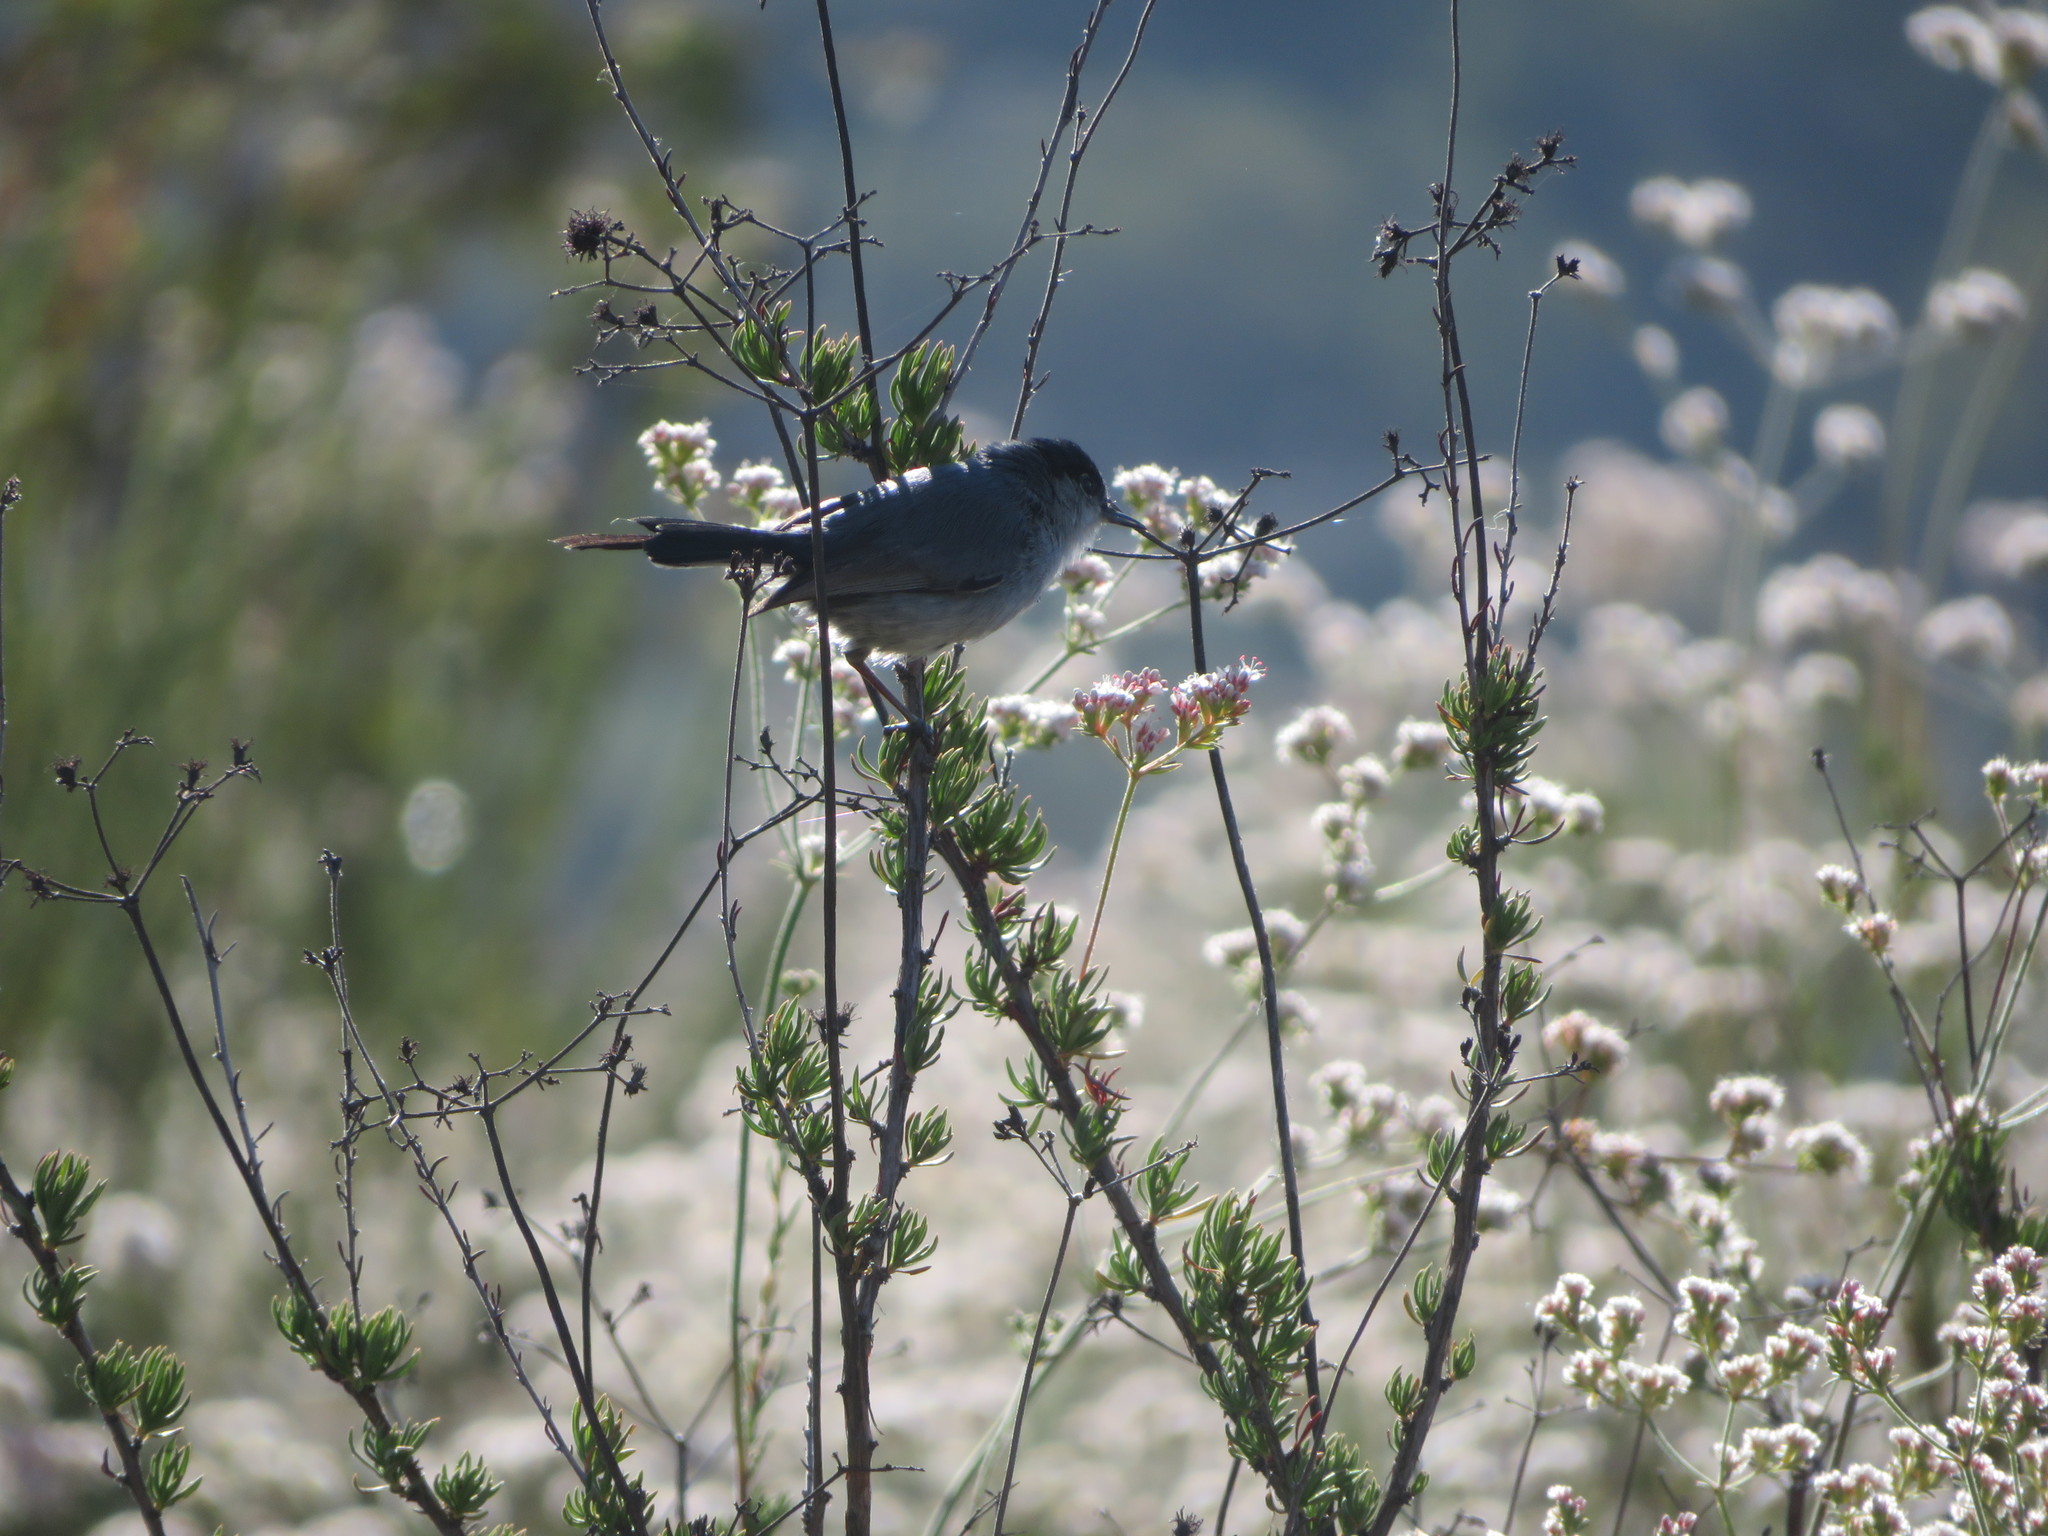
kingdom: Animalia
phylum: Chordata
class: Aves
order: Passeriformes
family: Polioptilidae
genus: Polioptila
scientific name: Polioptila californica
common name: California gnatcatcher
